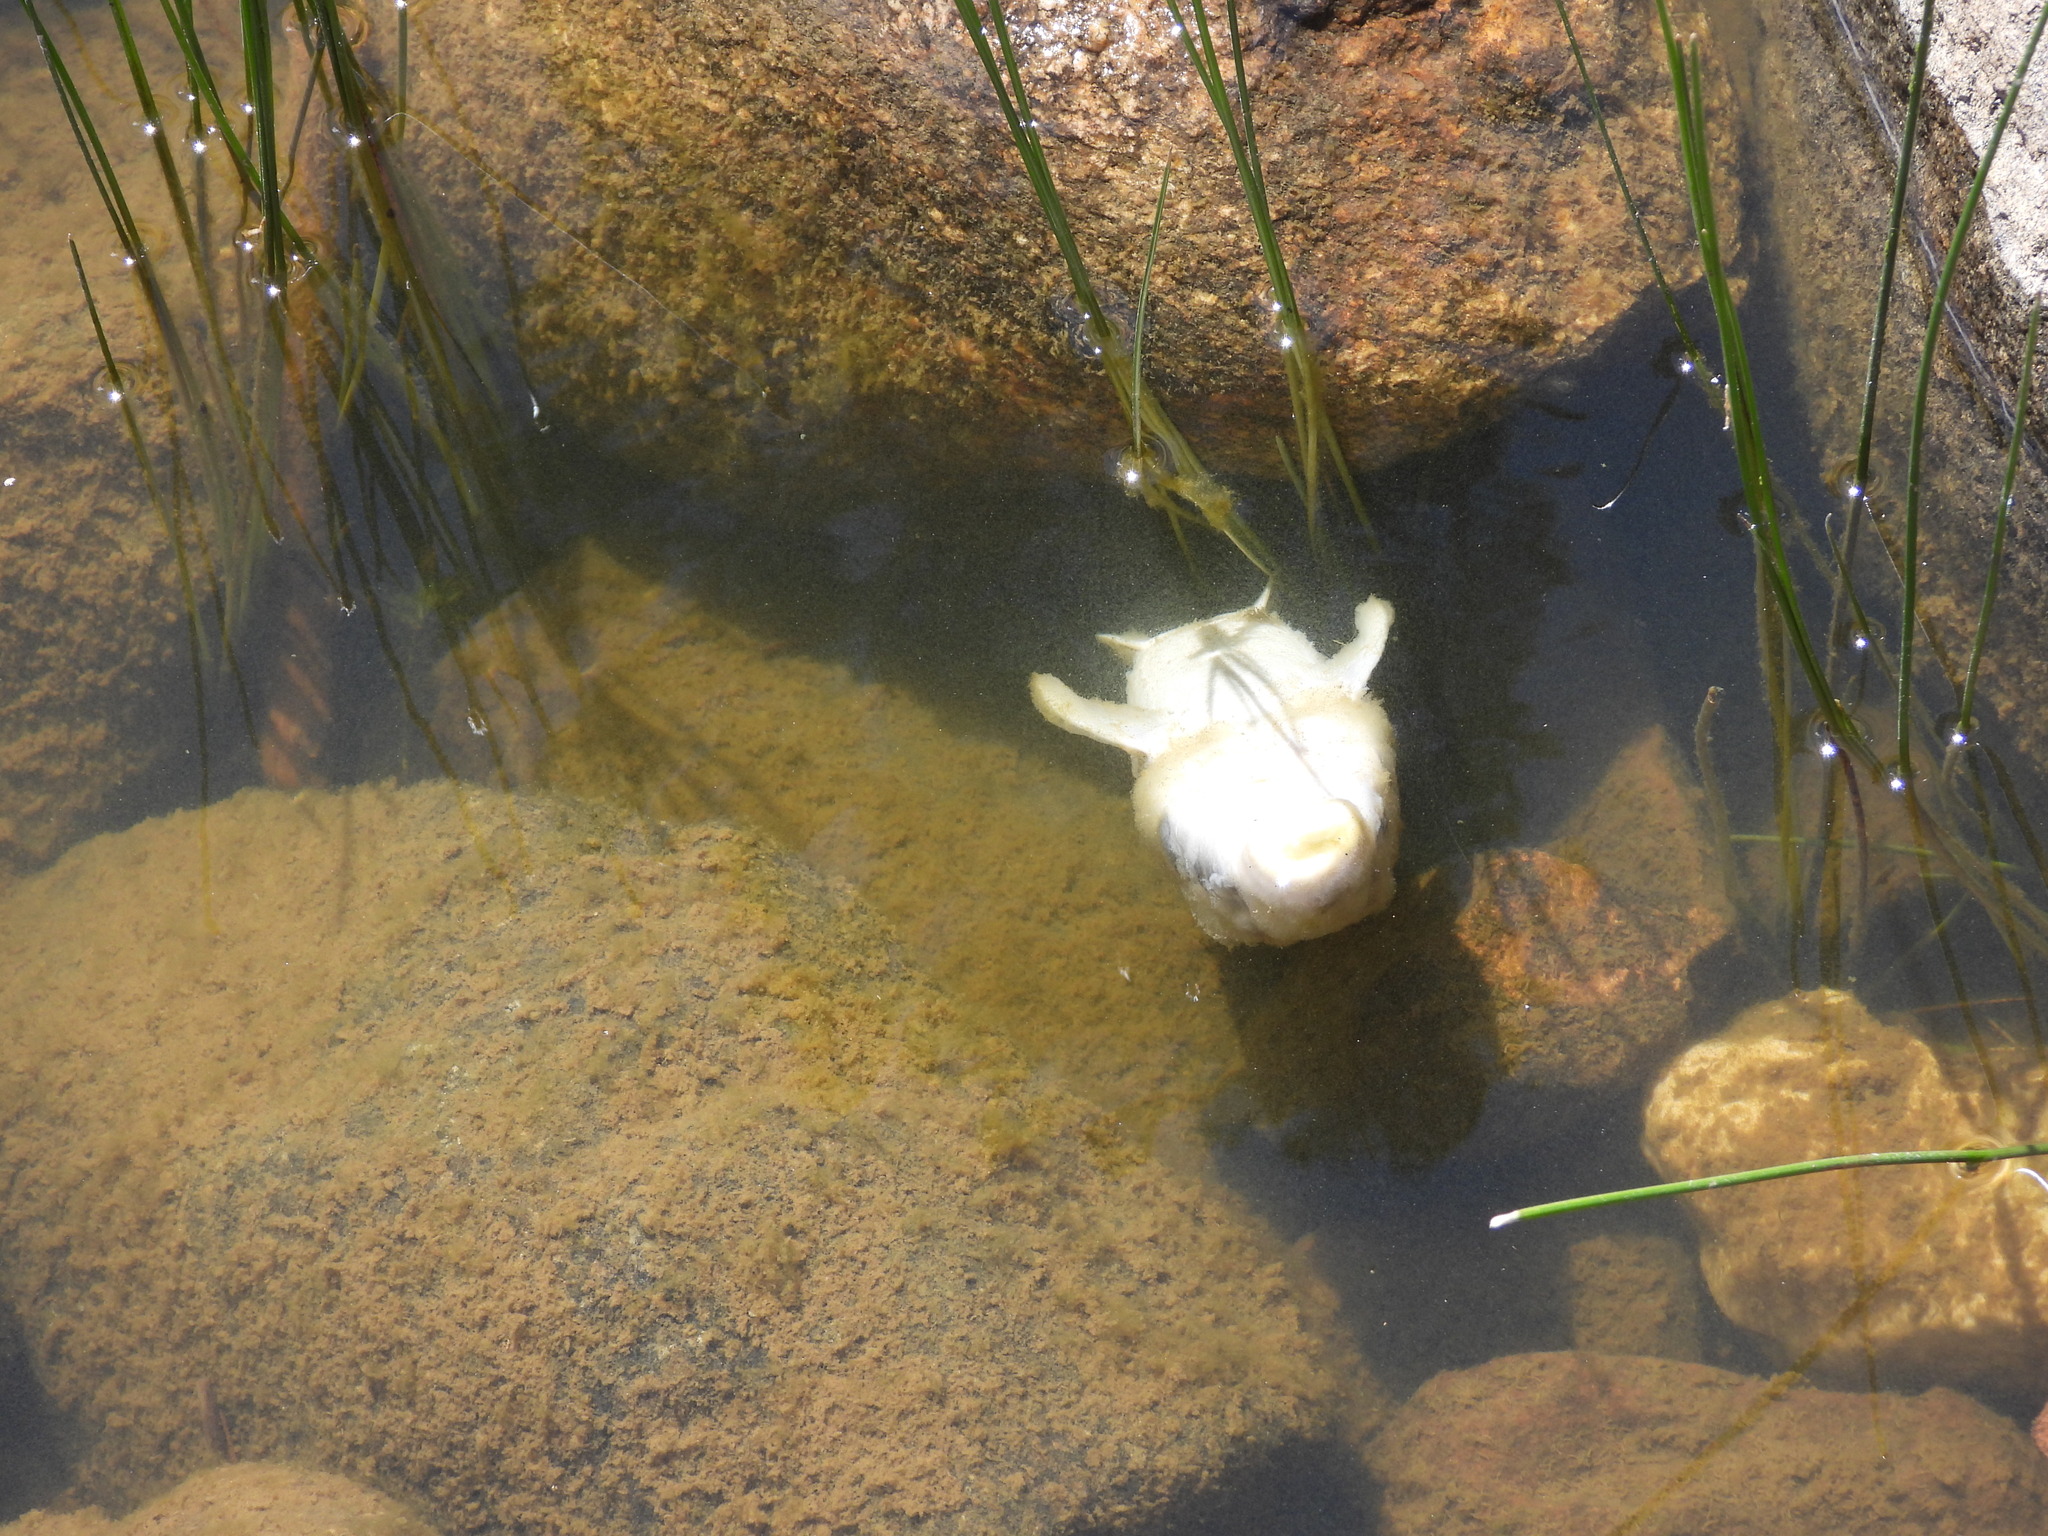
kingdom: Animalia
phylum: Chordata
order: Cypriniformes
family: Catostomidae
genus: Catostomus
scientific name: Catostomus commersonii
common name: White sucker
